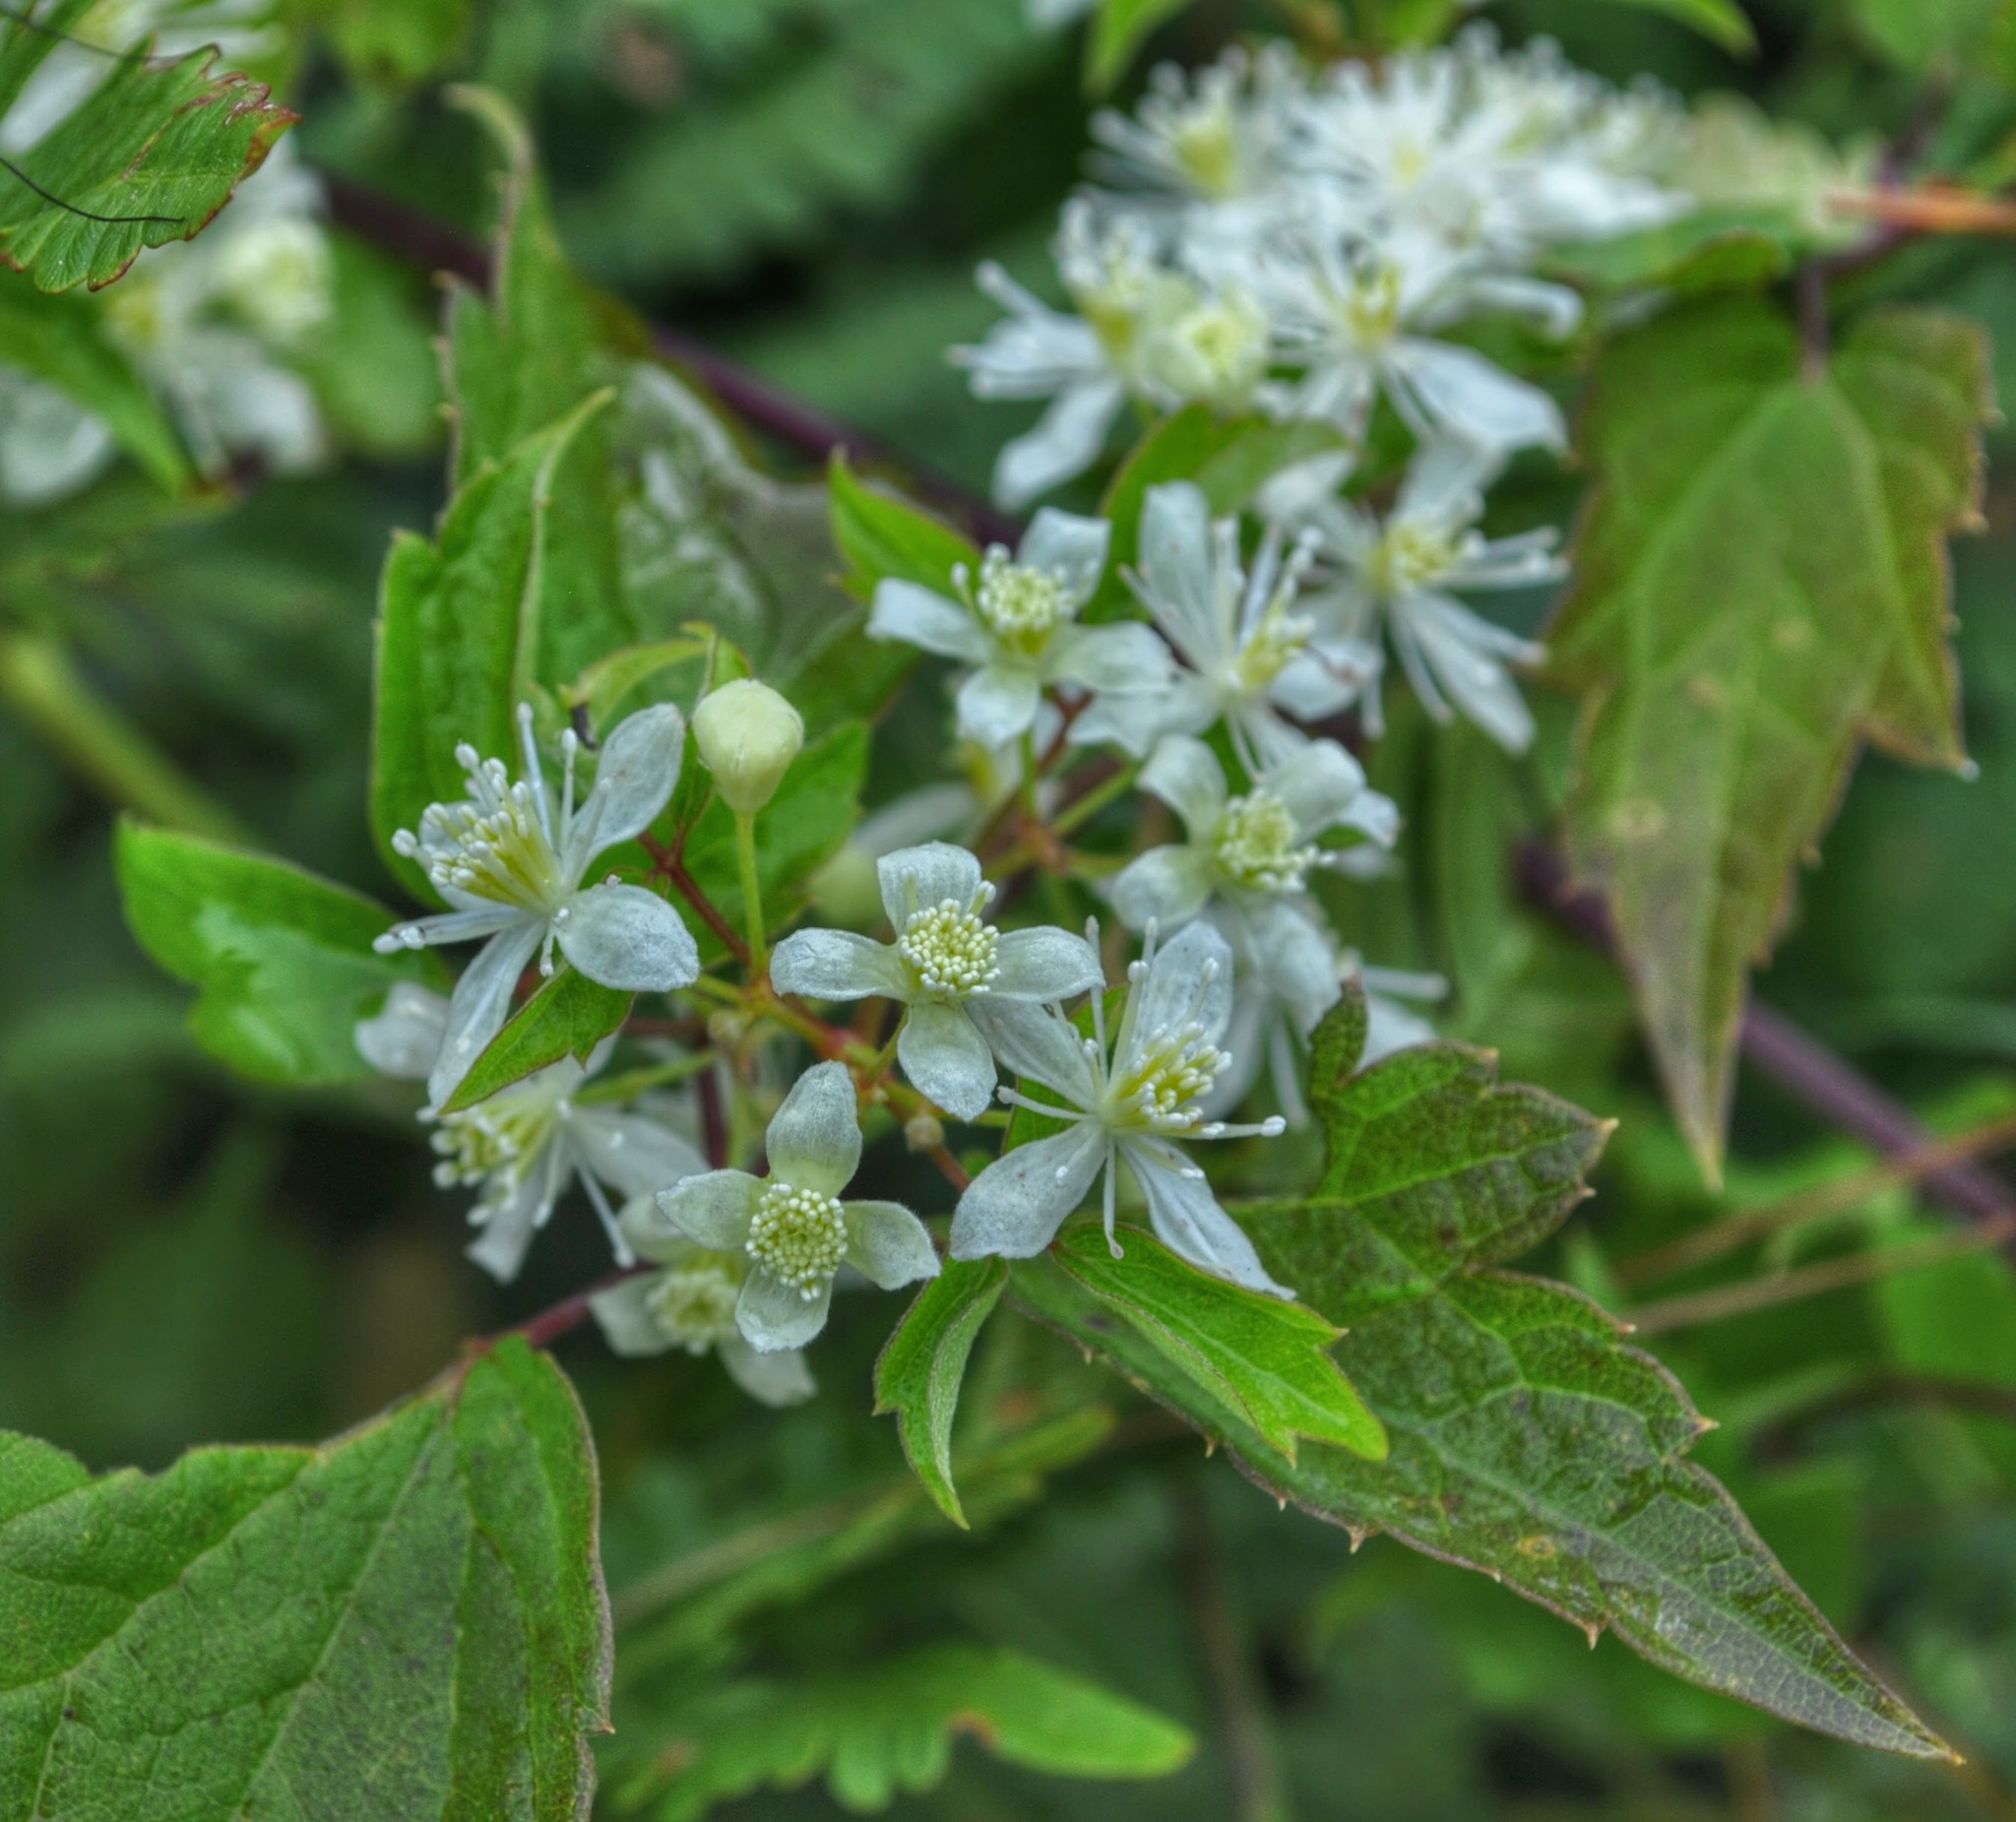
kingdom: Plantae
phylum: Tracheophyta
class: Magnoliopsida
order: Ranunculales
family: Ranunculaceae
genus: Clematis
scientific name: Clematis virginiana
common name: Virgin's-bower
